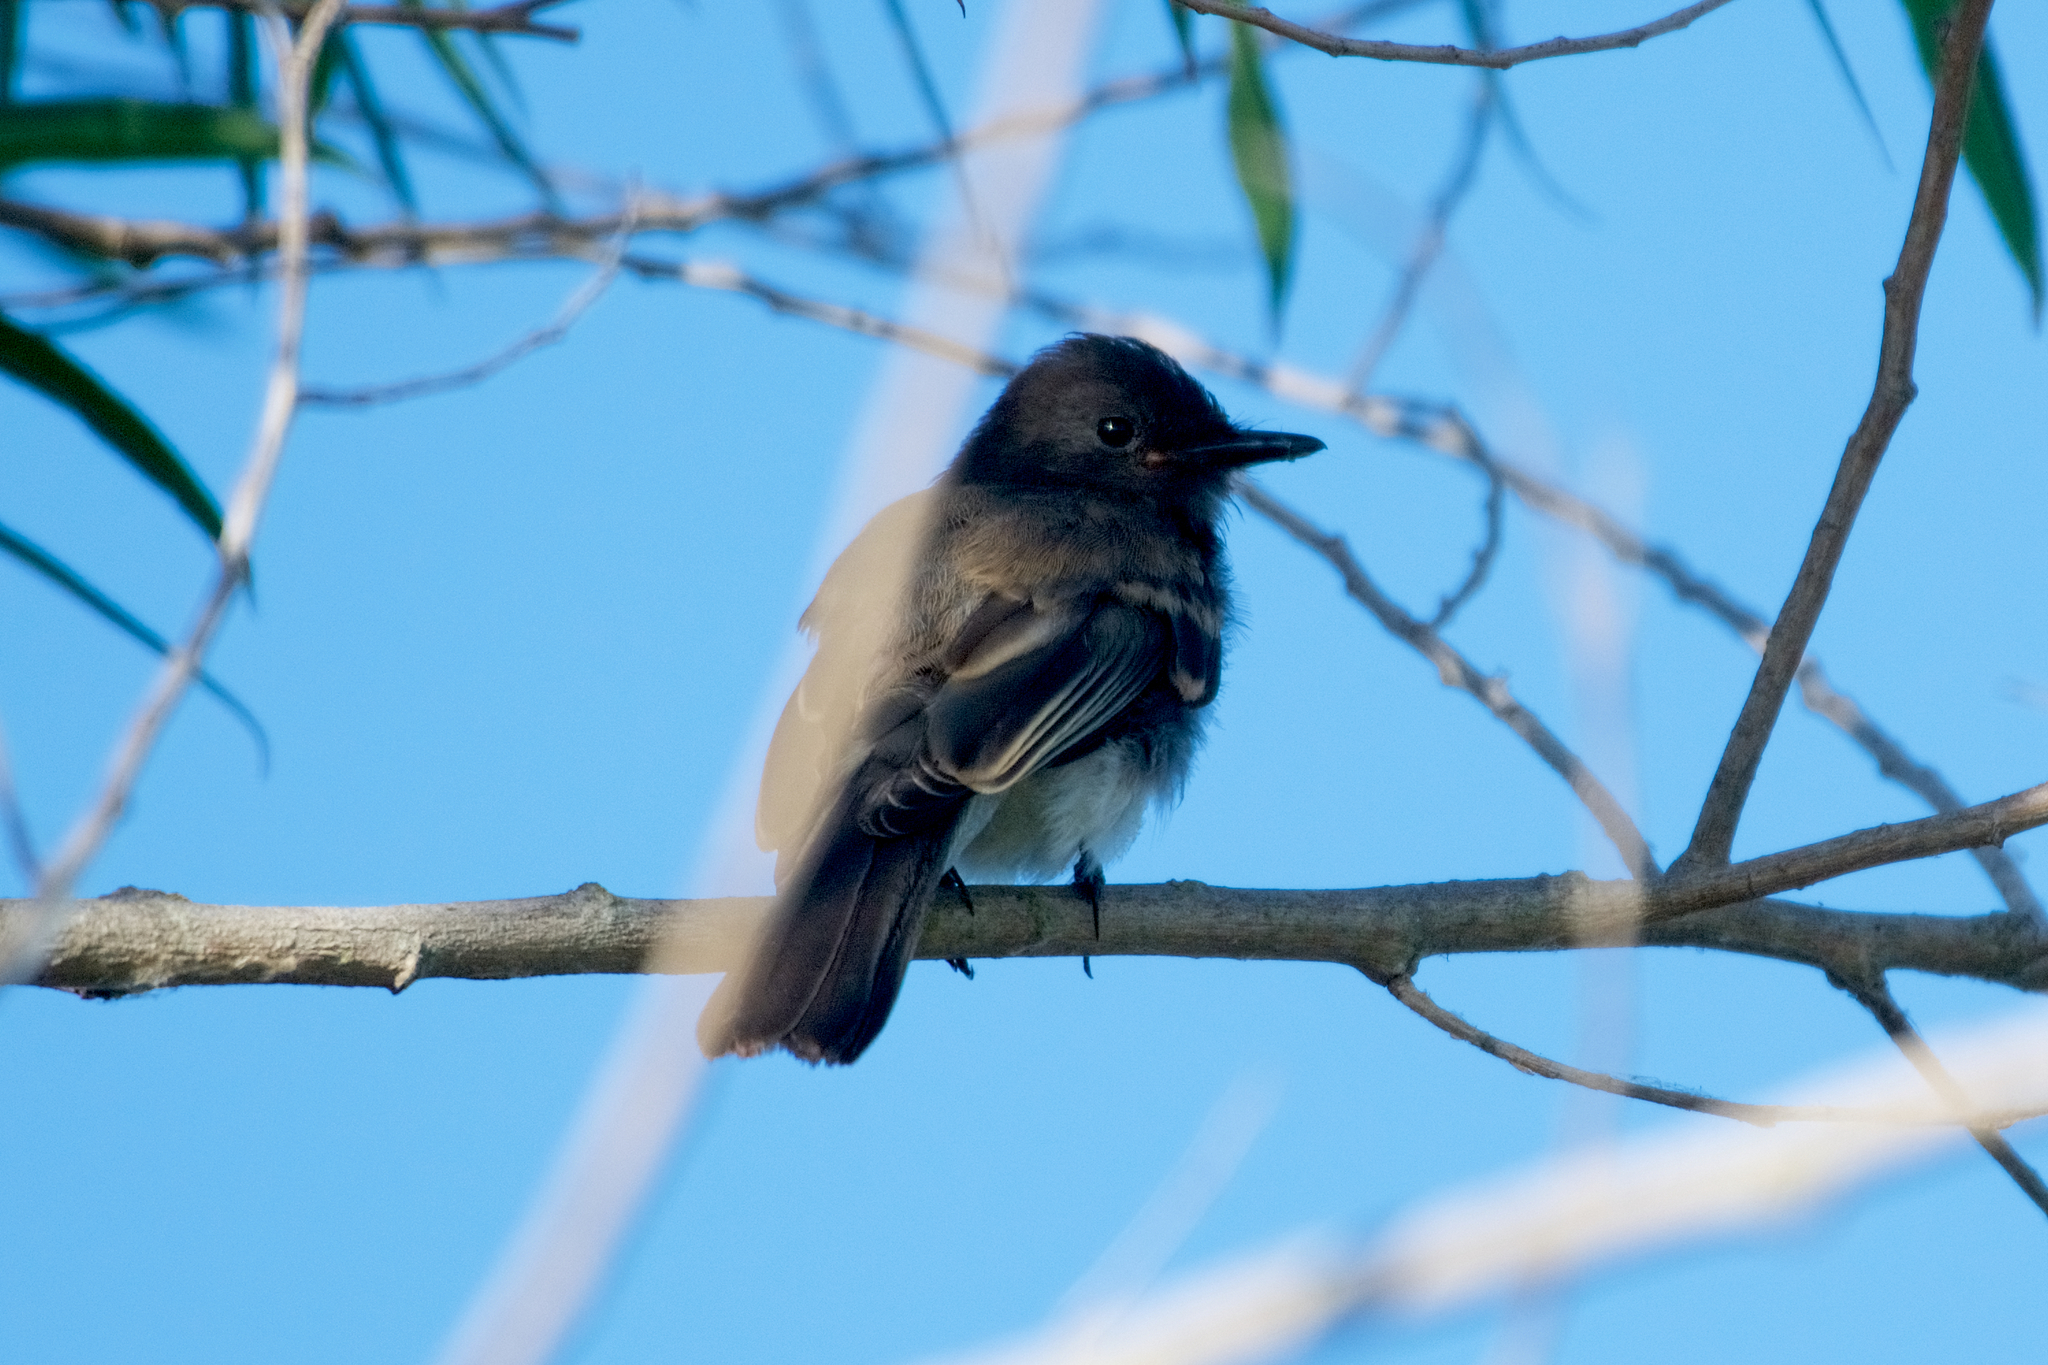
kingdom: Animalia
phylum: Chordata
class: Aves
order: Passeriformes
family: Tyrannidae
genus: Sayornis
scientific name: Sayornis nigricans
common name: Black phoebe
